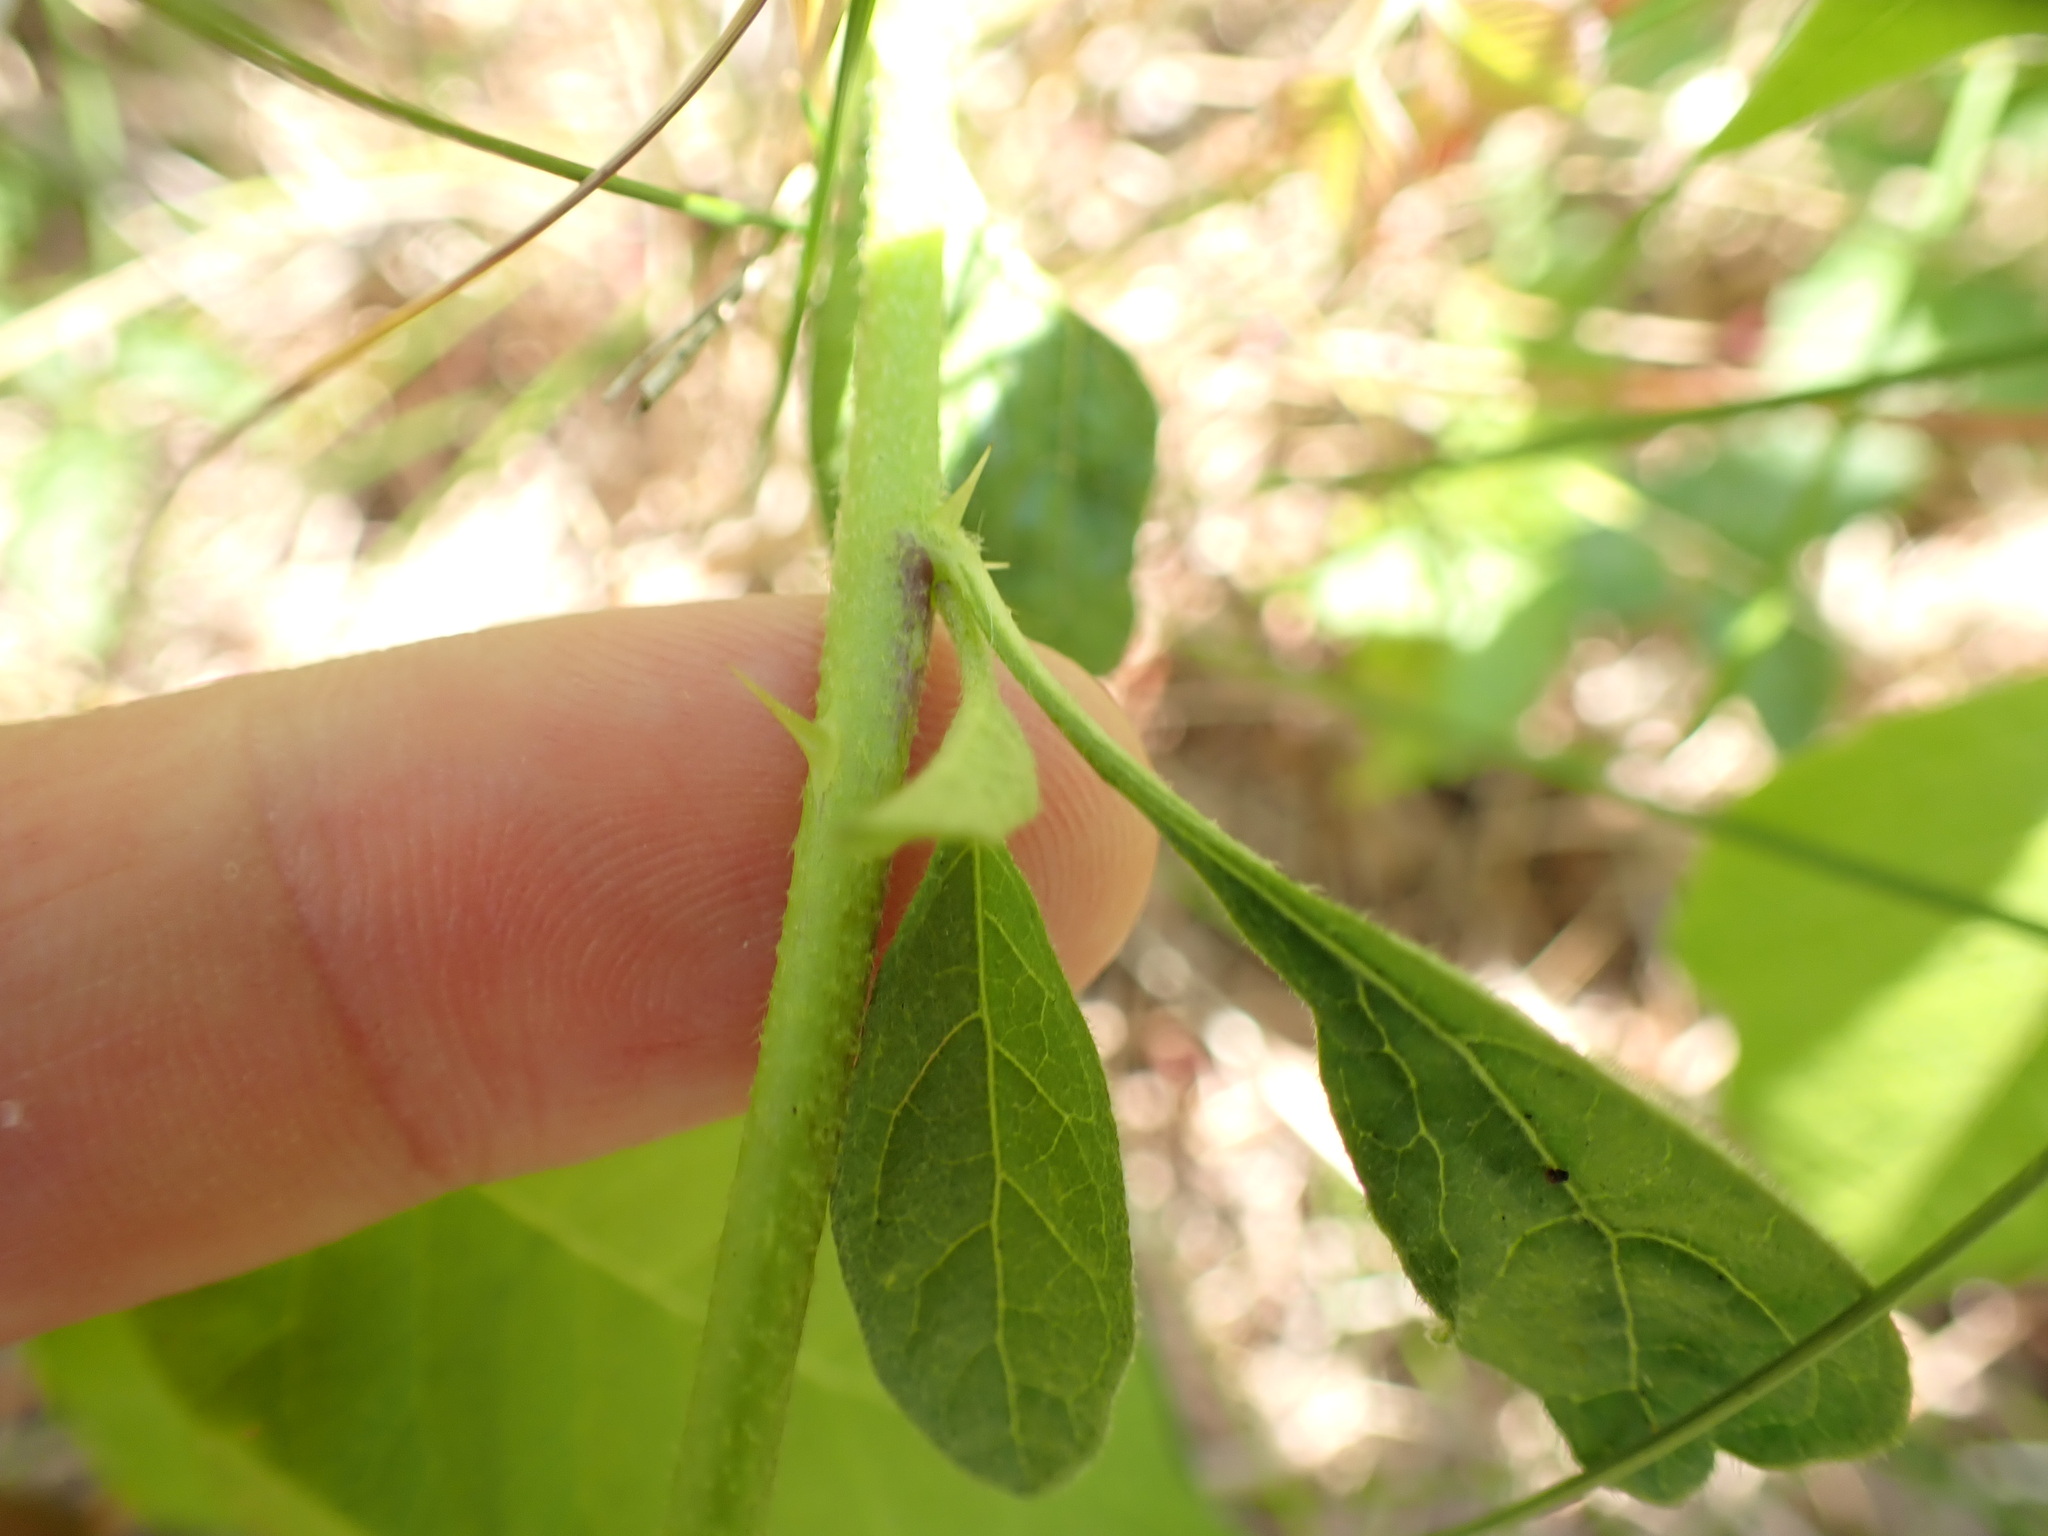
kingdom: Plantae
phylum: Tracheophyta
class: Magnoliopsida
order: Solanales
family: Solanaceae
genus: Solanum
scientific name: Solanum carolinense
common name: Horse-nettle
